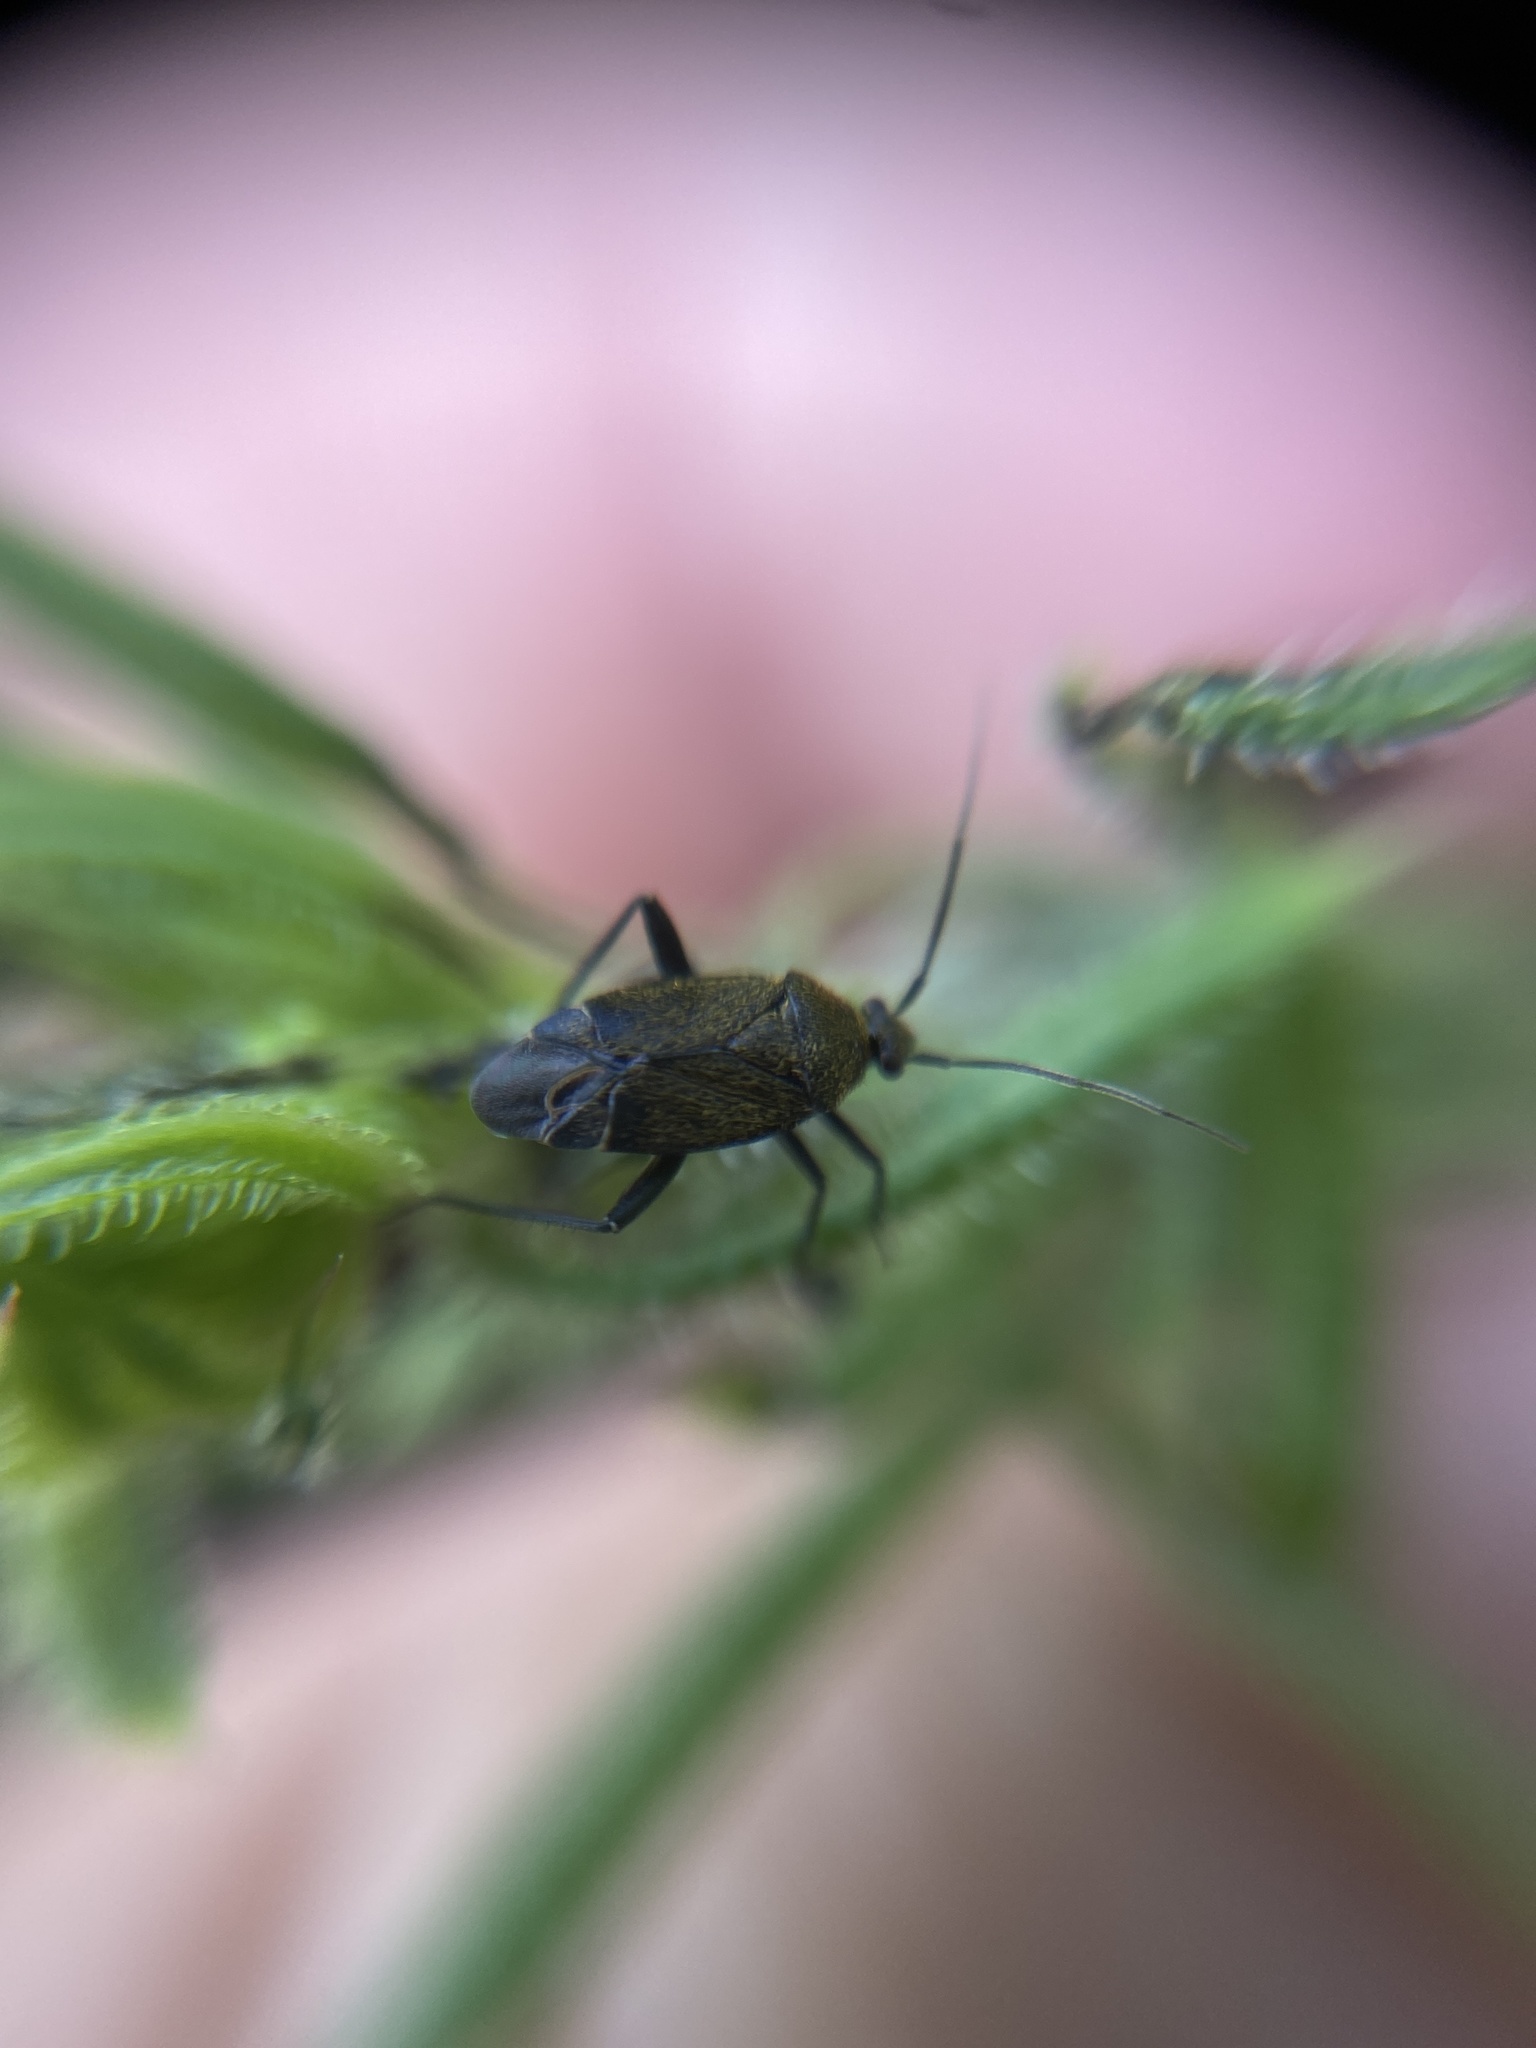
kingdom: Animalia
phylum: Arthropoda
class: Insecta
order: Hemiptera
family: Miridae
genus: Polymerus
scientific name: Polymerus nigritus
